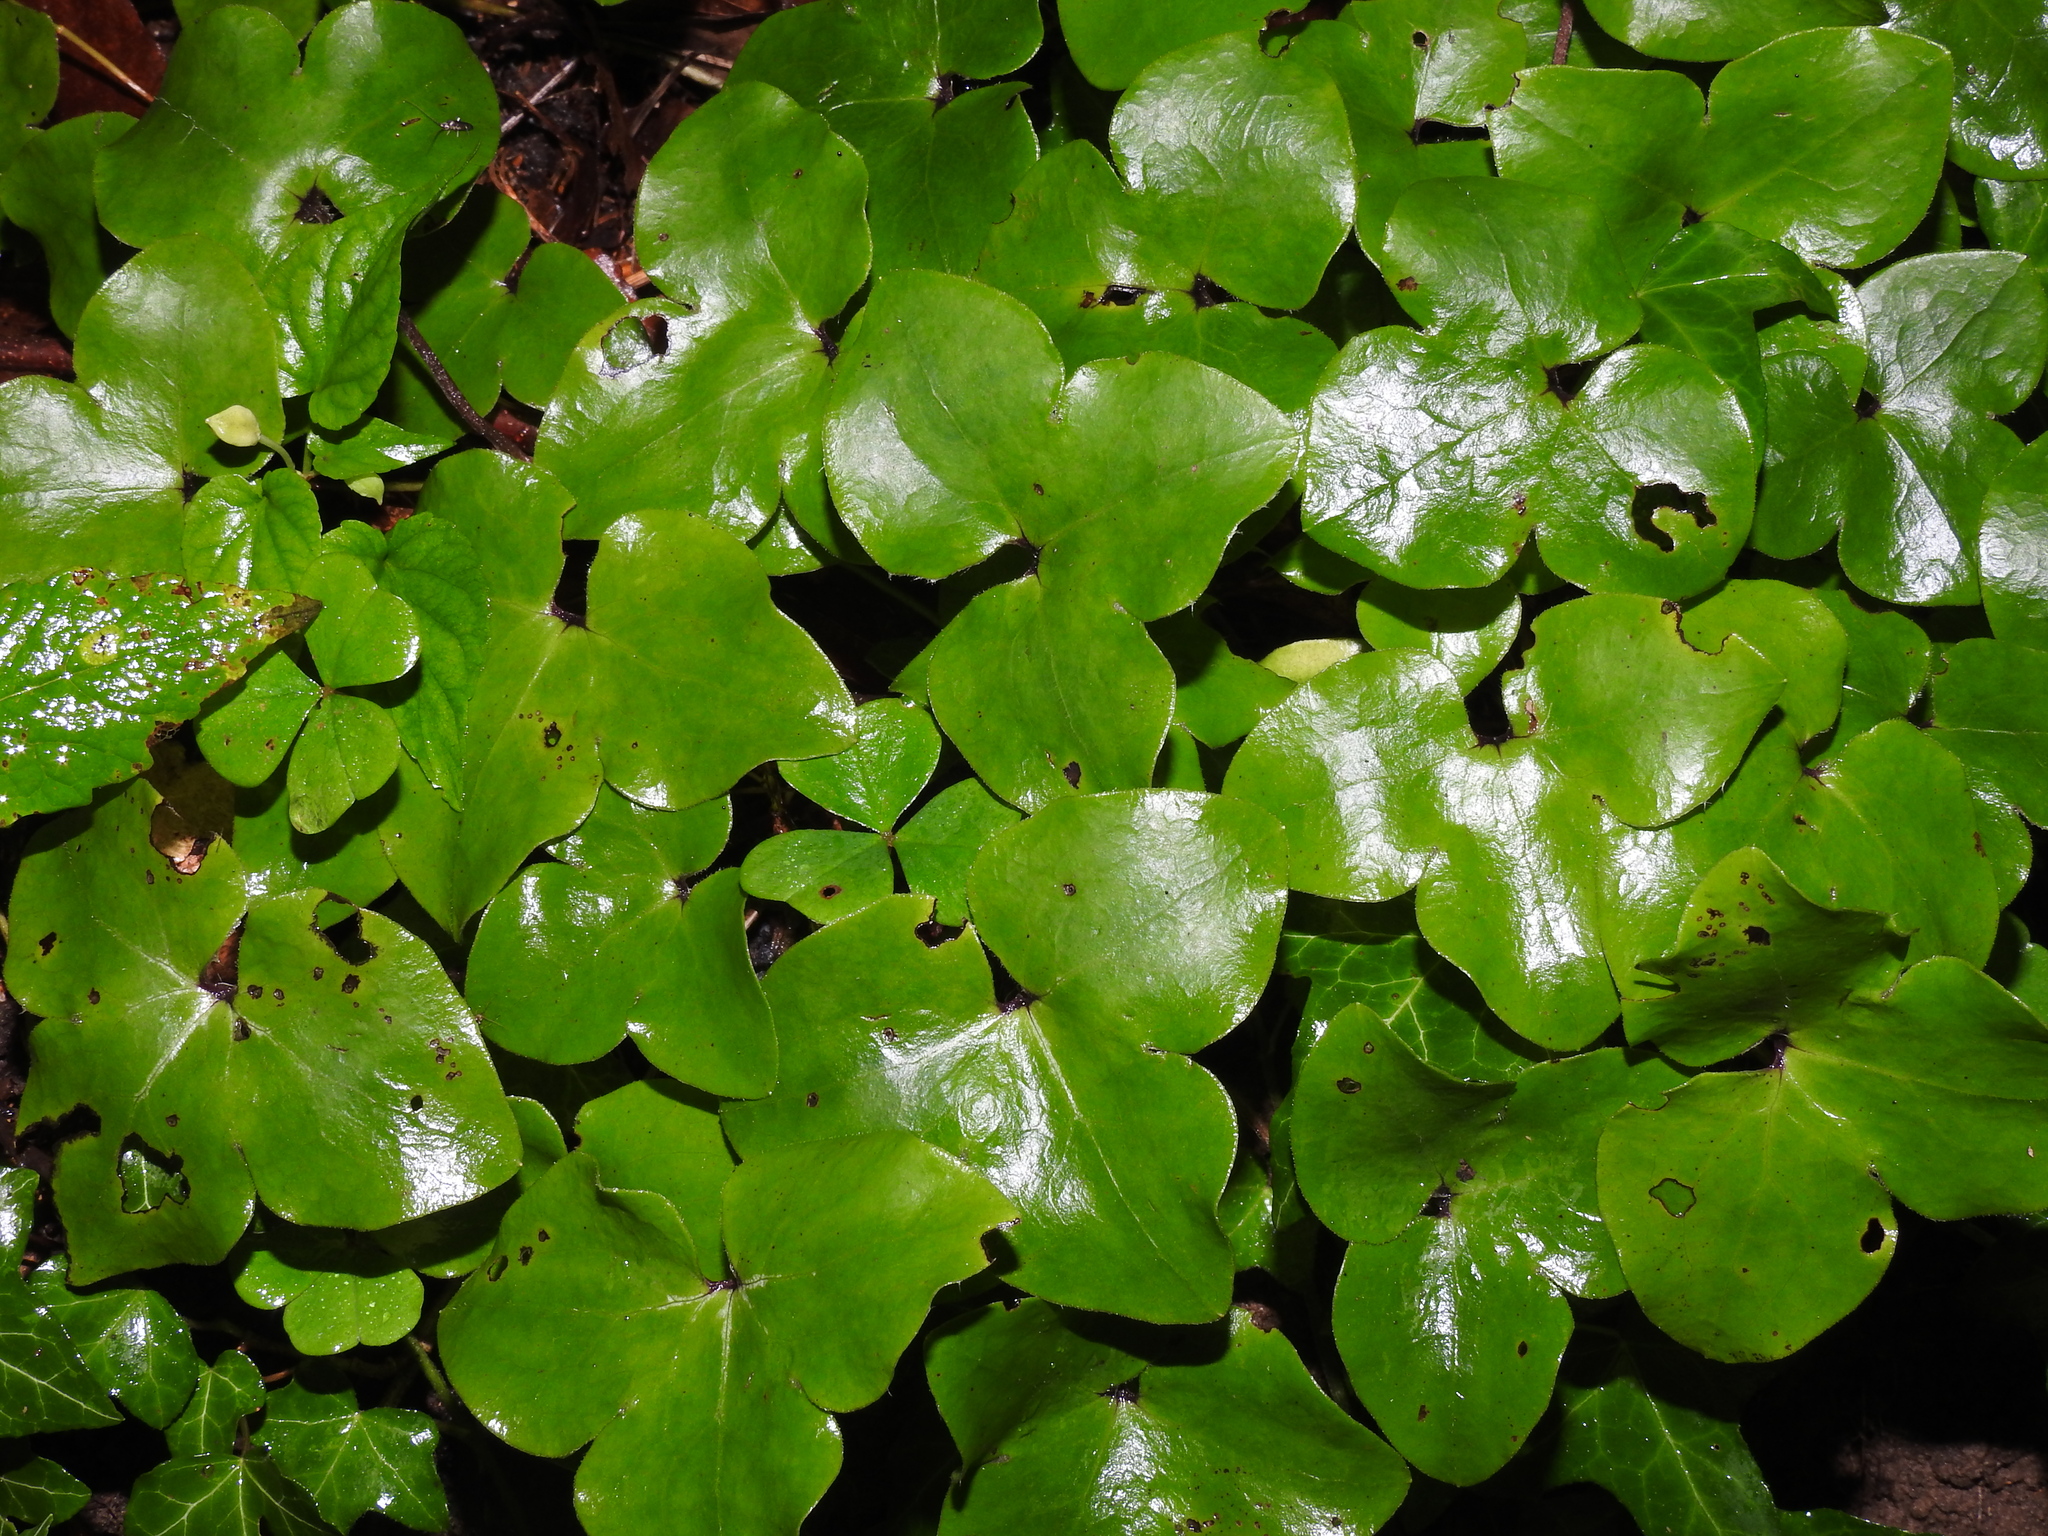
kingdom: Plantae
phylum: Tracheophyta
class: Magnoliopsida
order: Ranunculales
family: Ranunculaceae
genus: Hepatica
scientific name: Hepatica nobilis
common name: Liverleaf
